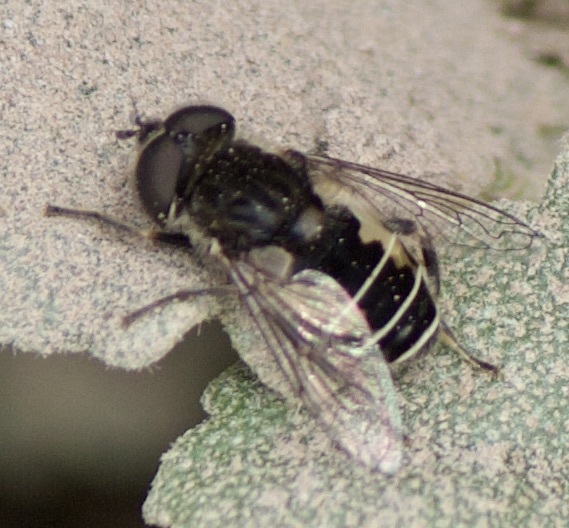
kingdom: Animalia
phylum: Arthropoda
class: Insecta
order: Diptera
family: Syrphidae
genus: Palpada
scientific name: Palpada meigenii
